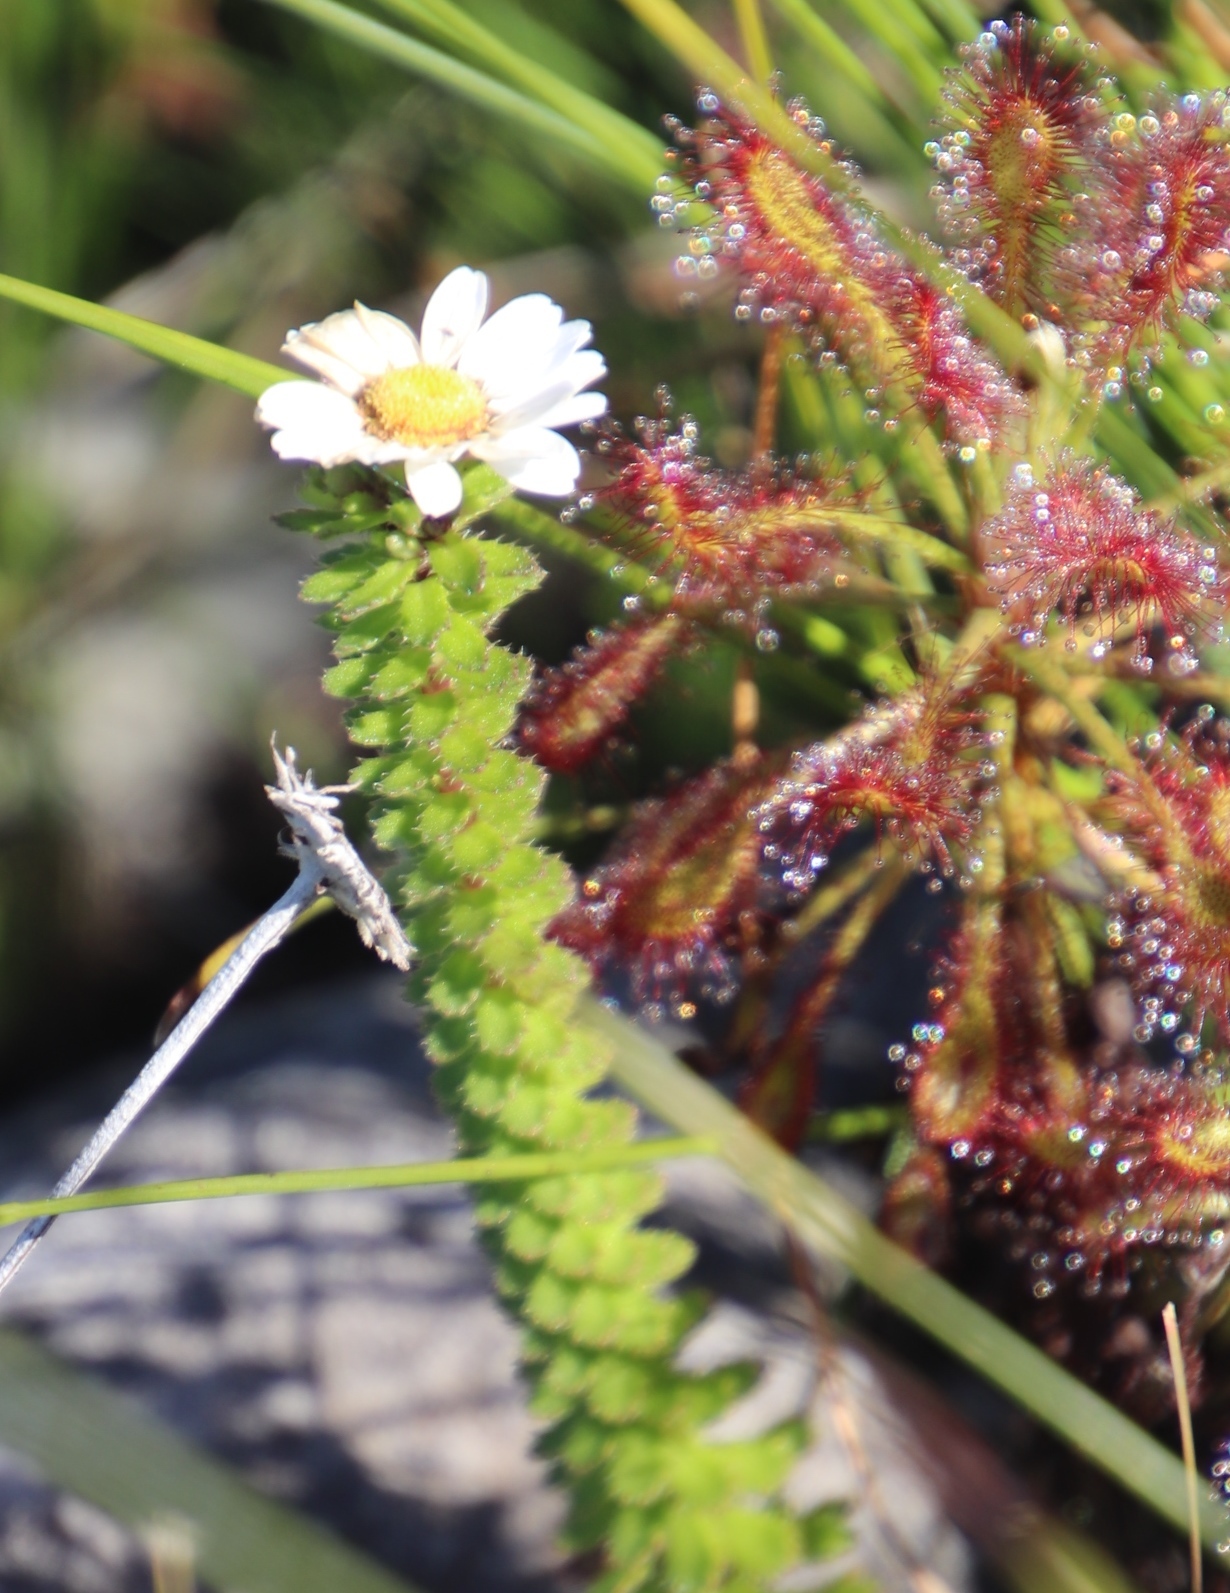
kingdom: Plantae
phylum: Tracheophyta
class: Magnoliopsida
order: Asterales
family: Asteraceae
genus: Osmitopsis
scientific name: Osmitopsis parvifolia
